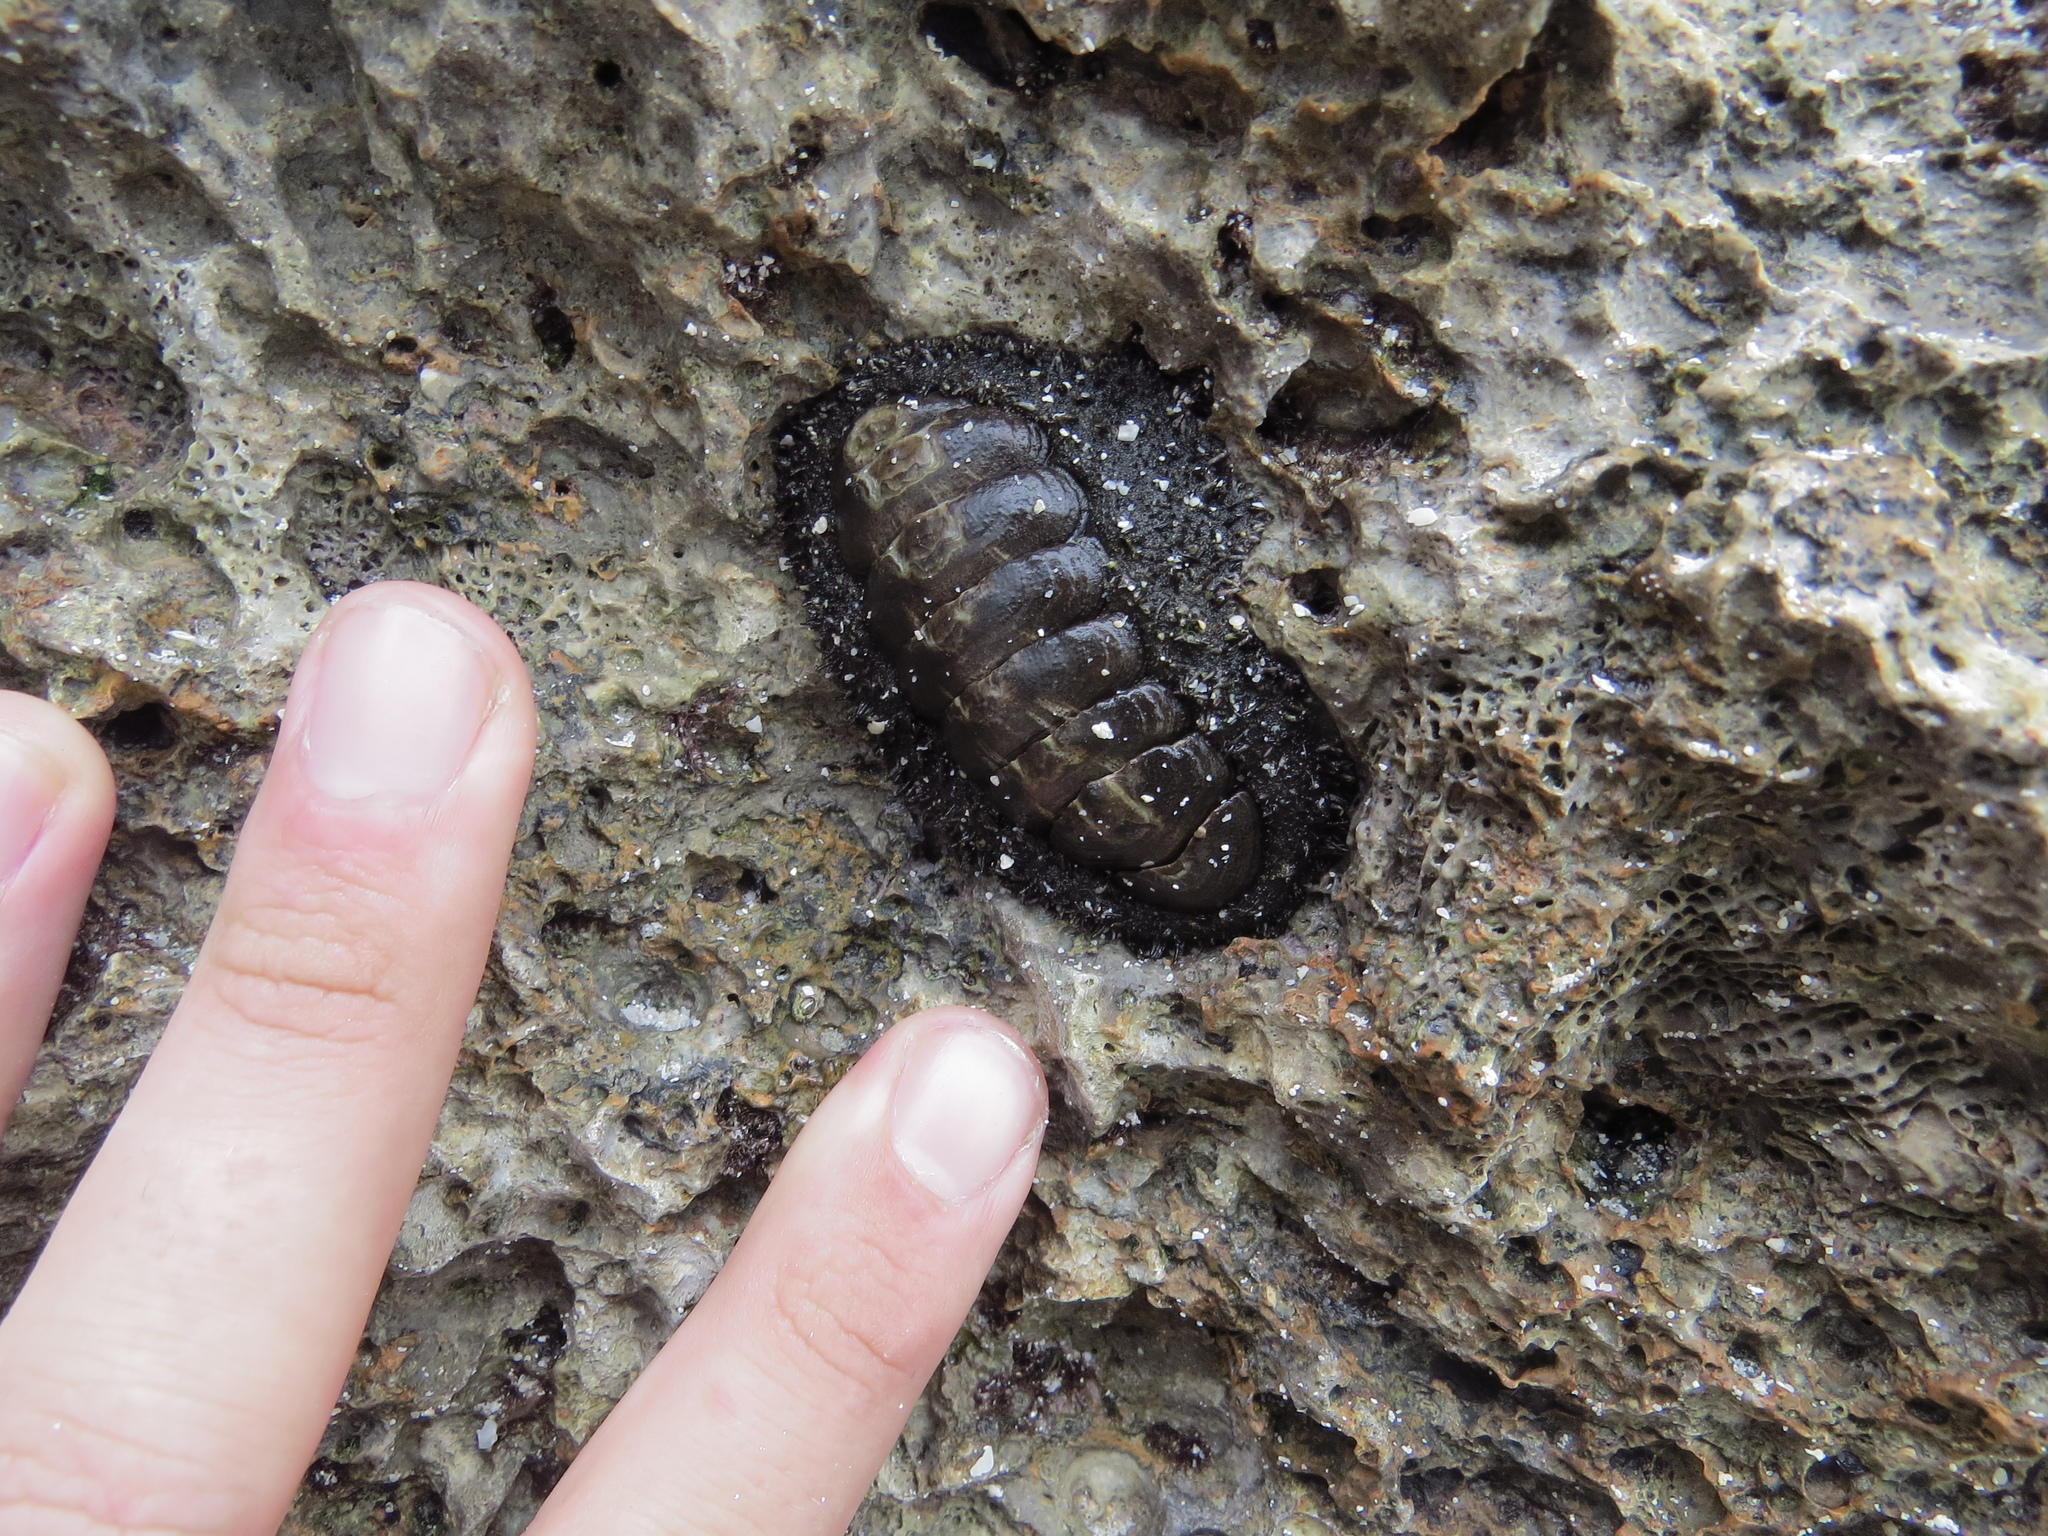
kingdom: Animalia
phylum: Mollusca
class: Polyplacophora
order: Chitonida
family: Chitonidae
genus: Acanthopleura
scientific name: Acanthopleura testudo
